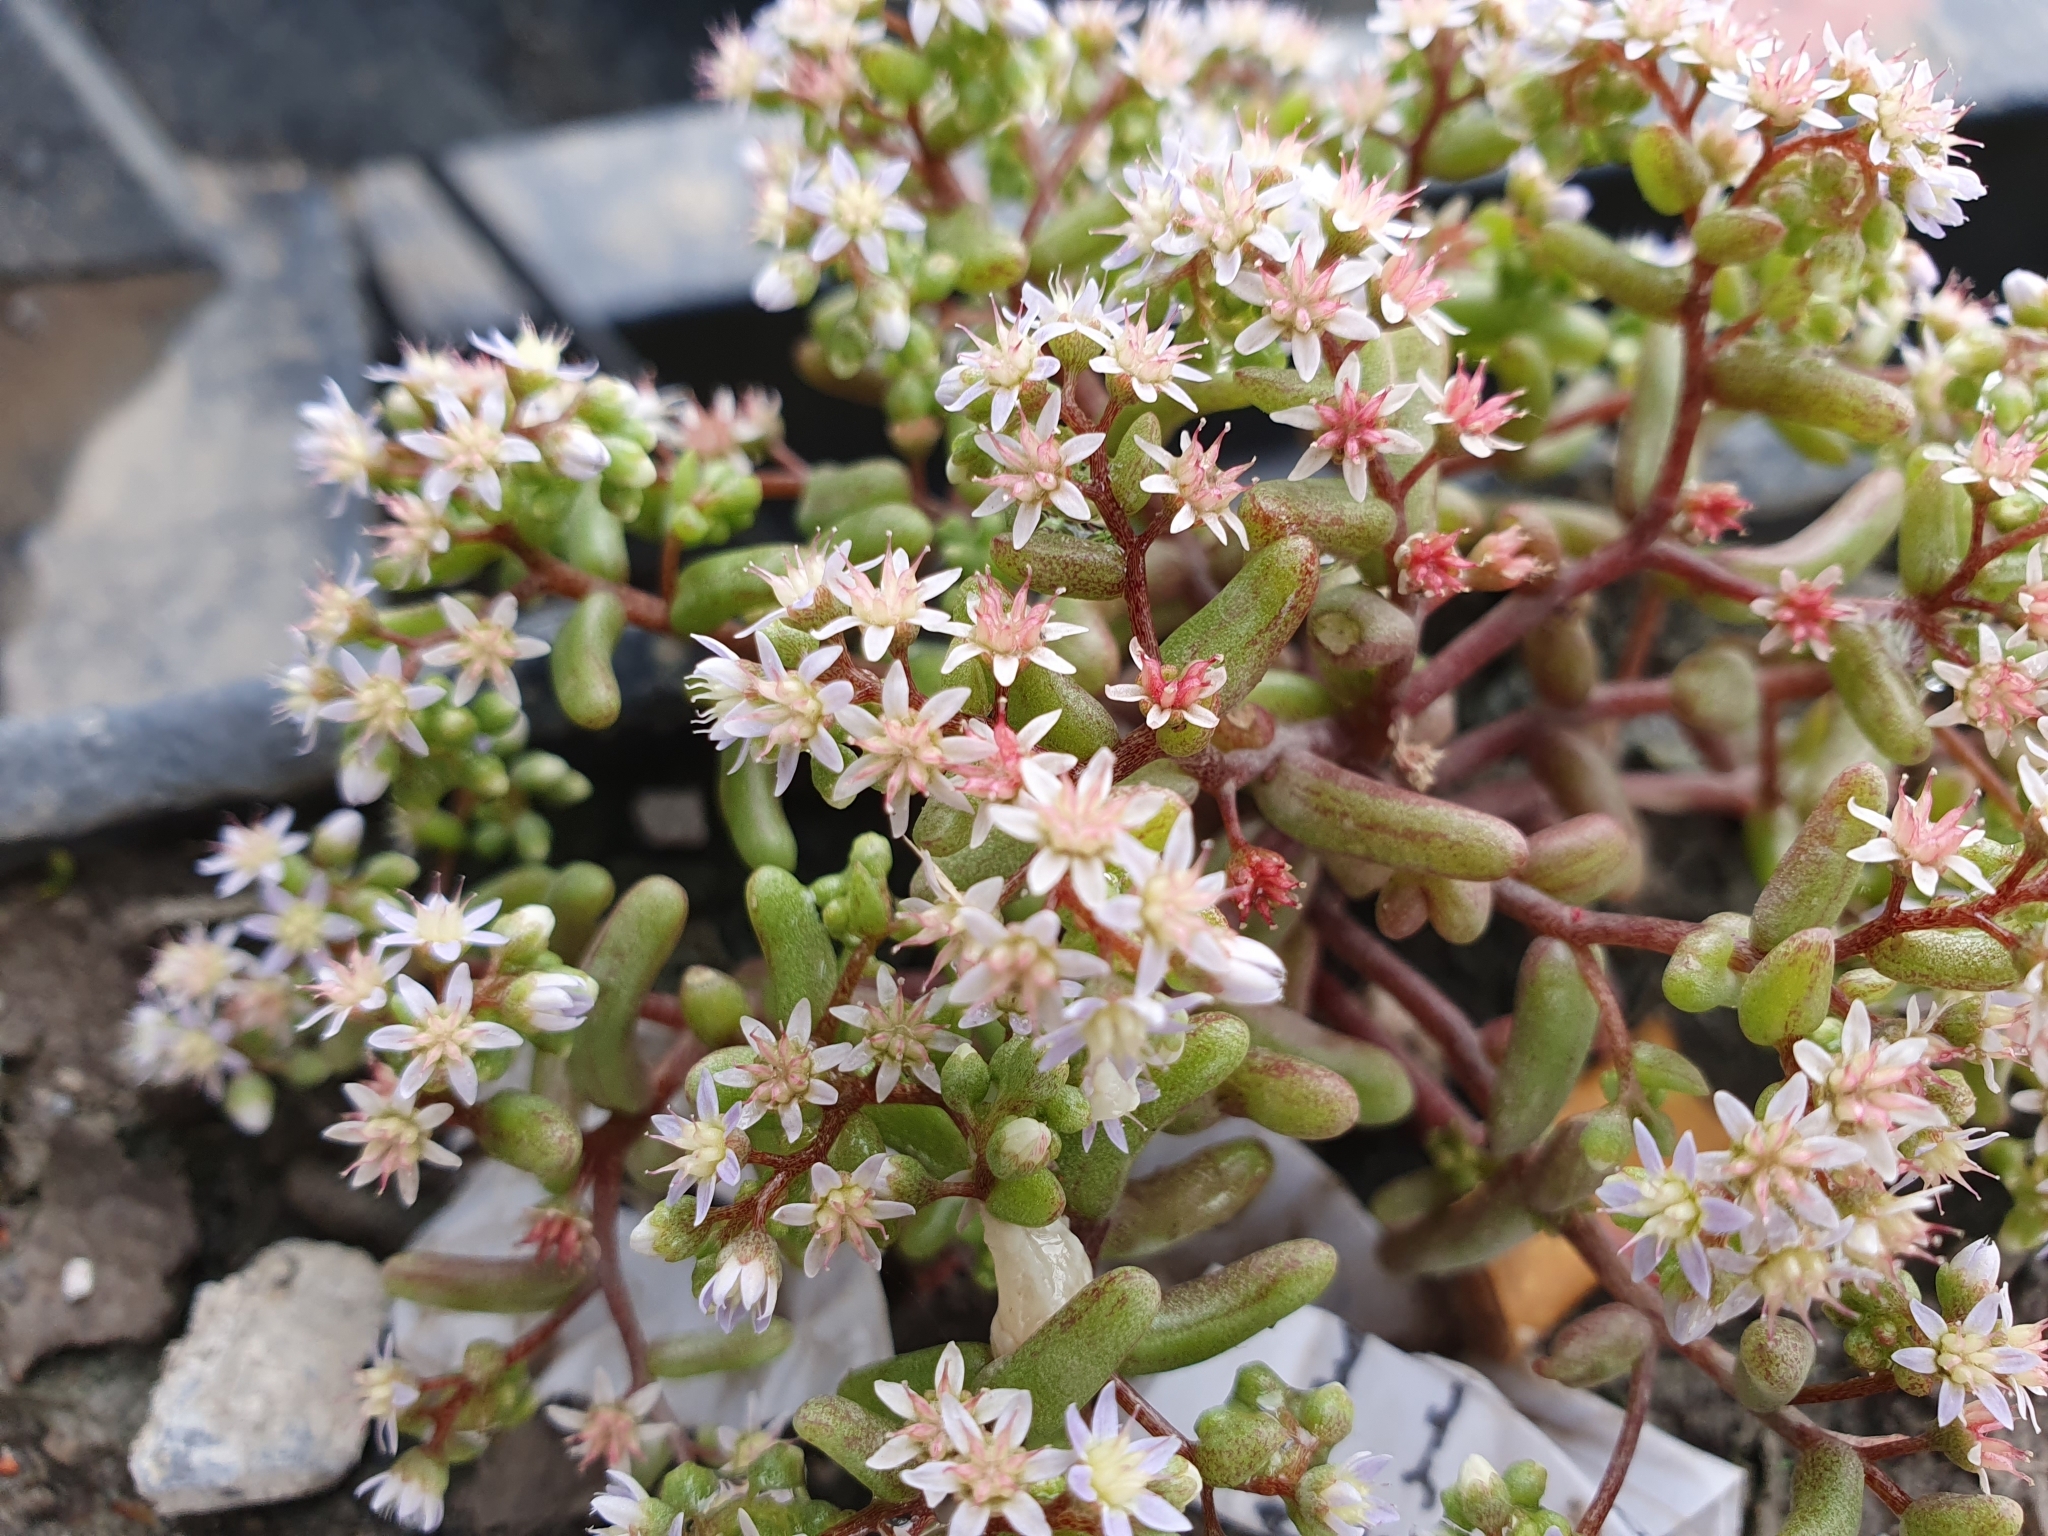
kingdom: Plantae
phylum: Tracheophyta
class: Magnoliopsida
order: Saxifragales
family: Crassulaceae
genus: Sedum
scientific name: Sedum caeruleum
